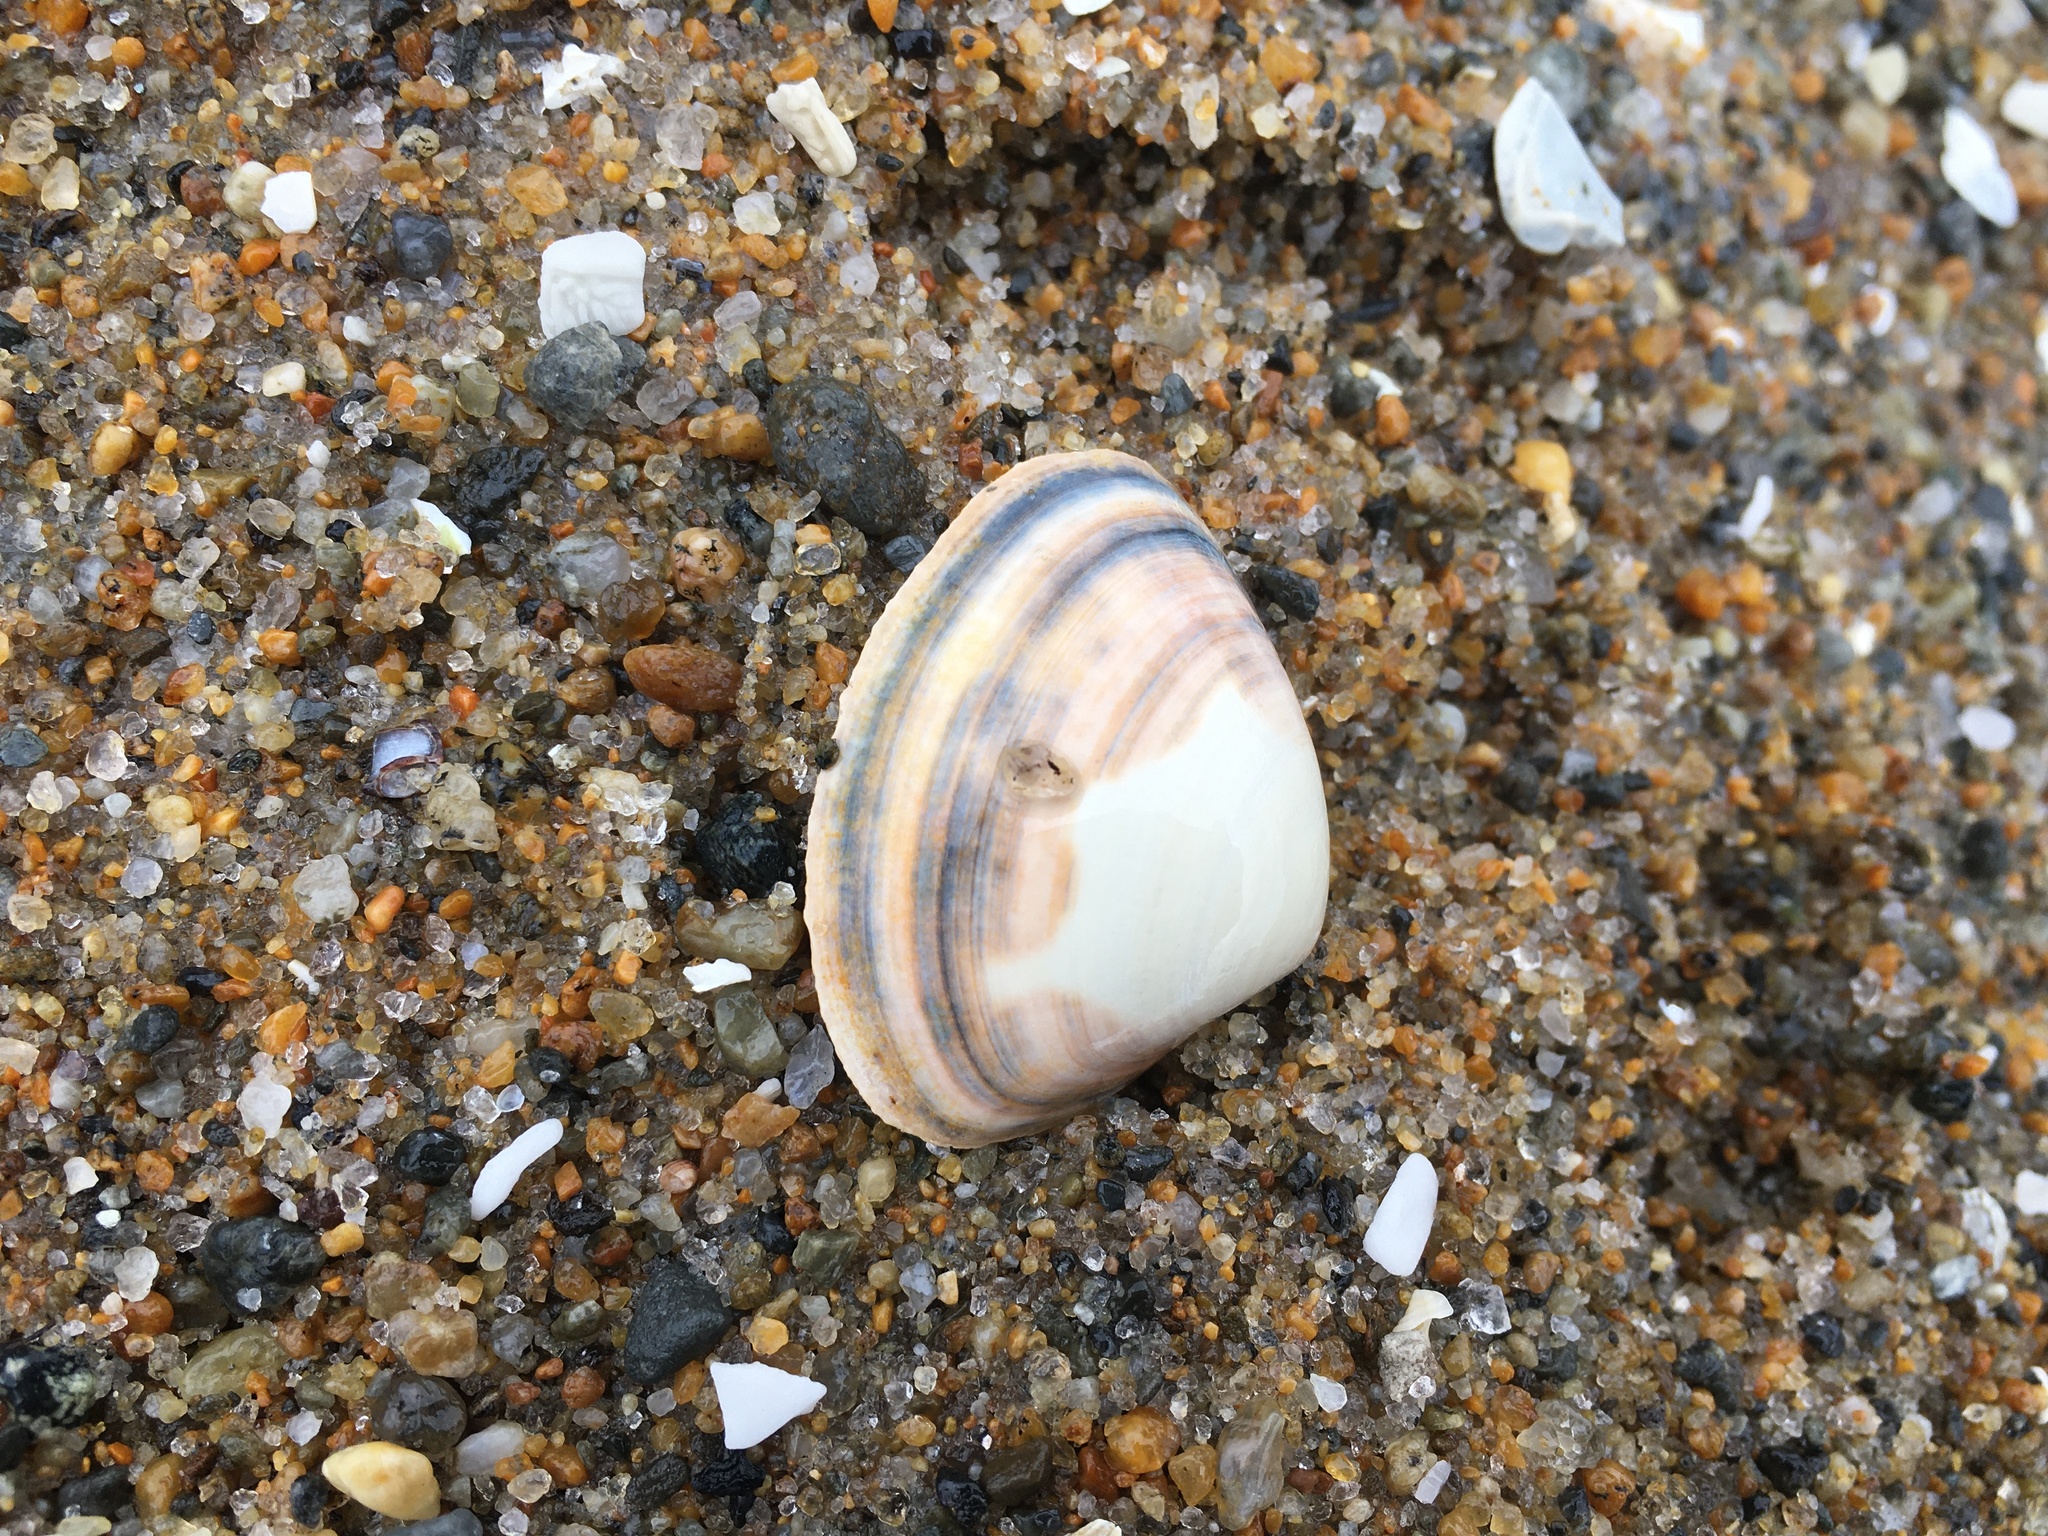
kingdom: Animalia
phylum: Mollusca
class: Bivalvia
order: Venerida
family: Mactridae
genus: Spisula
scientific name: Spisula solidissima
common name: Atlantic surf clam
